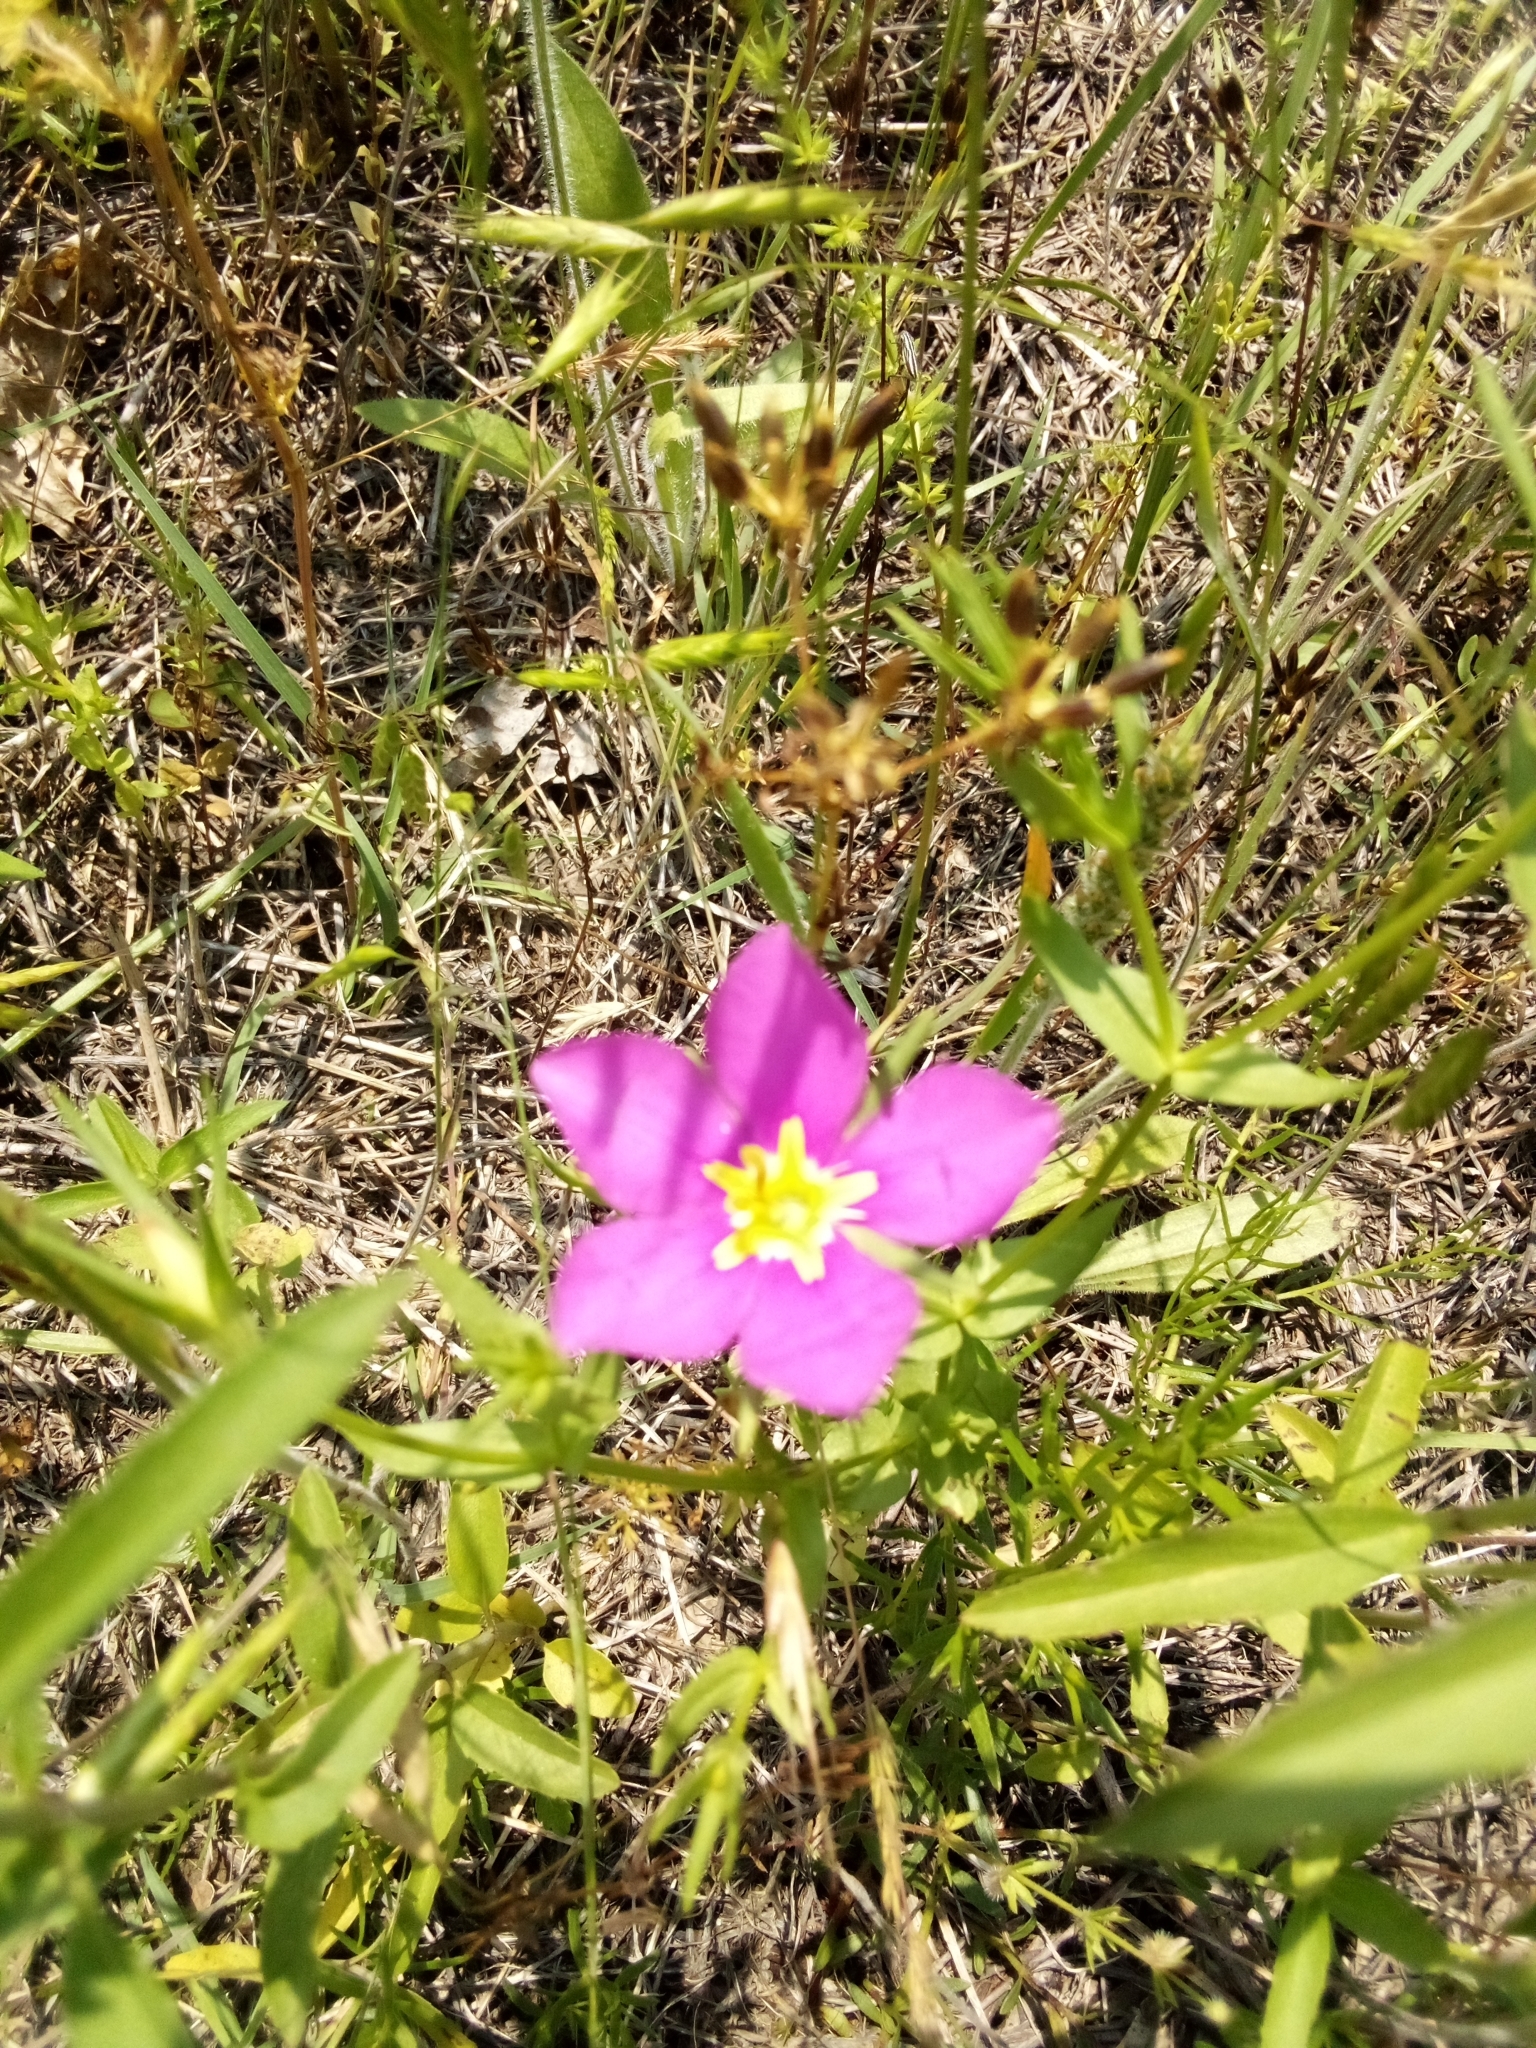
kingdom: Plantae
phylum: Tracheophyta
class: Magnoliopsida
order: Gentianales
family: Gentianaceae
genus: Sabatia
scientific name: Sabatia campestris
